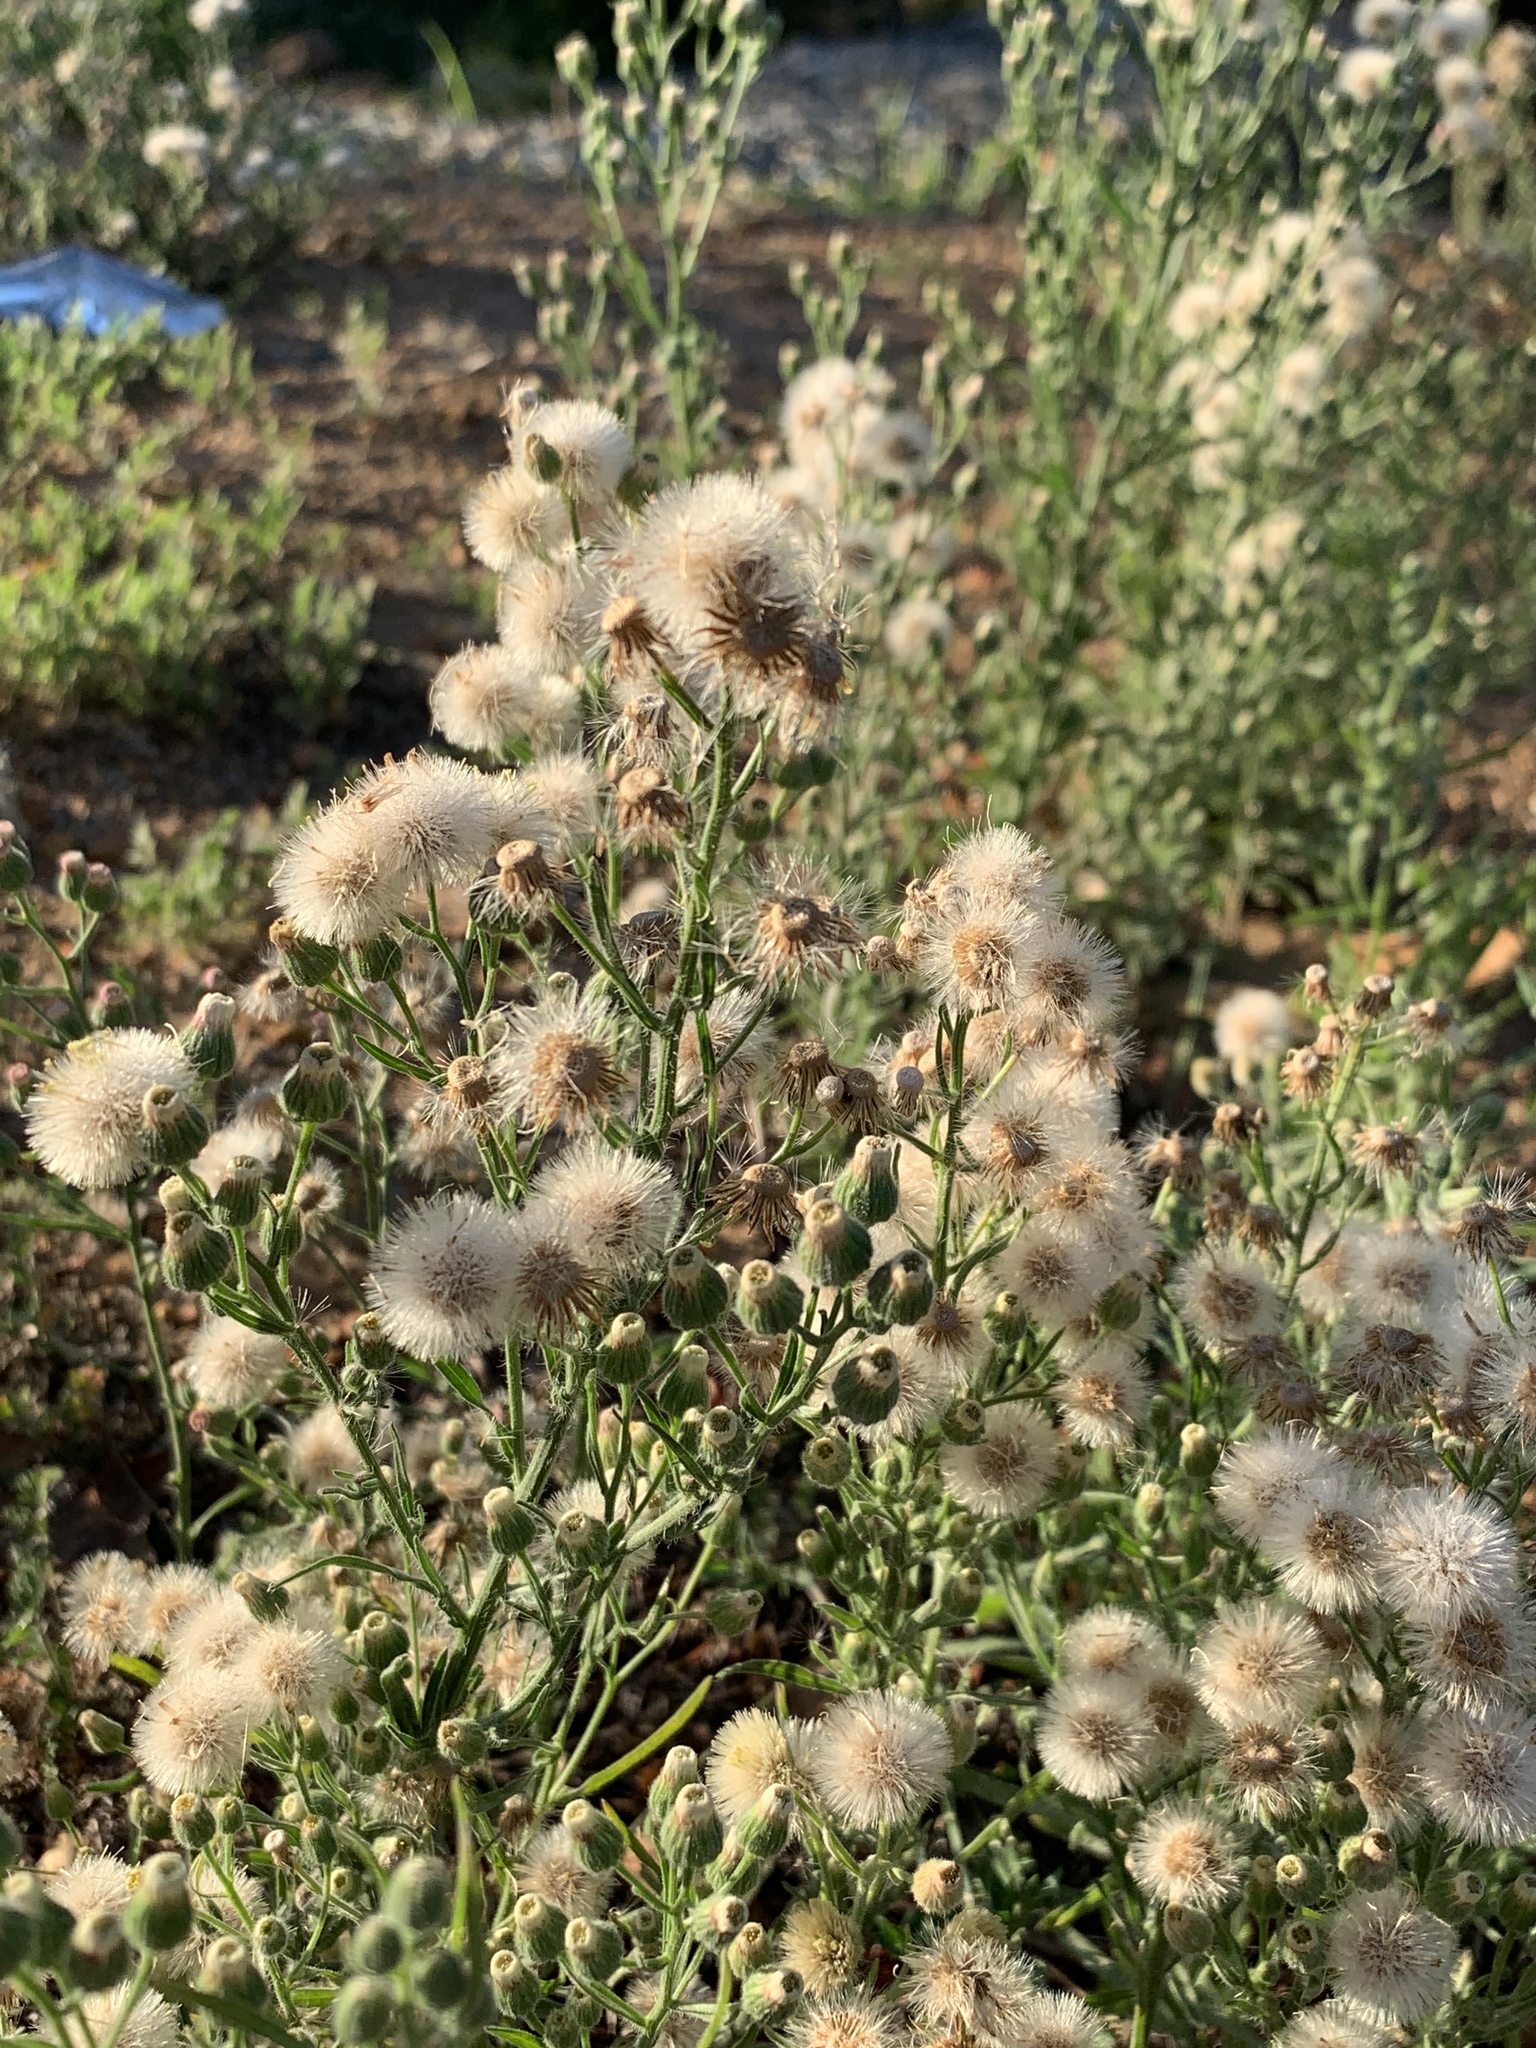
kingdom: Plantae
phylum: Tracheophyta
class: Magnoliopsida
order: Asterales
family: Asteraceae
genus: Erigeron
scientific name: Erigeron bonariensis
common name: Argentine fleabane
